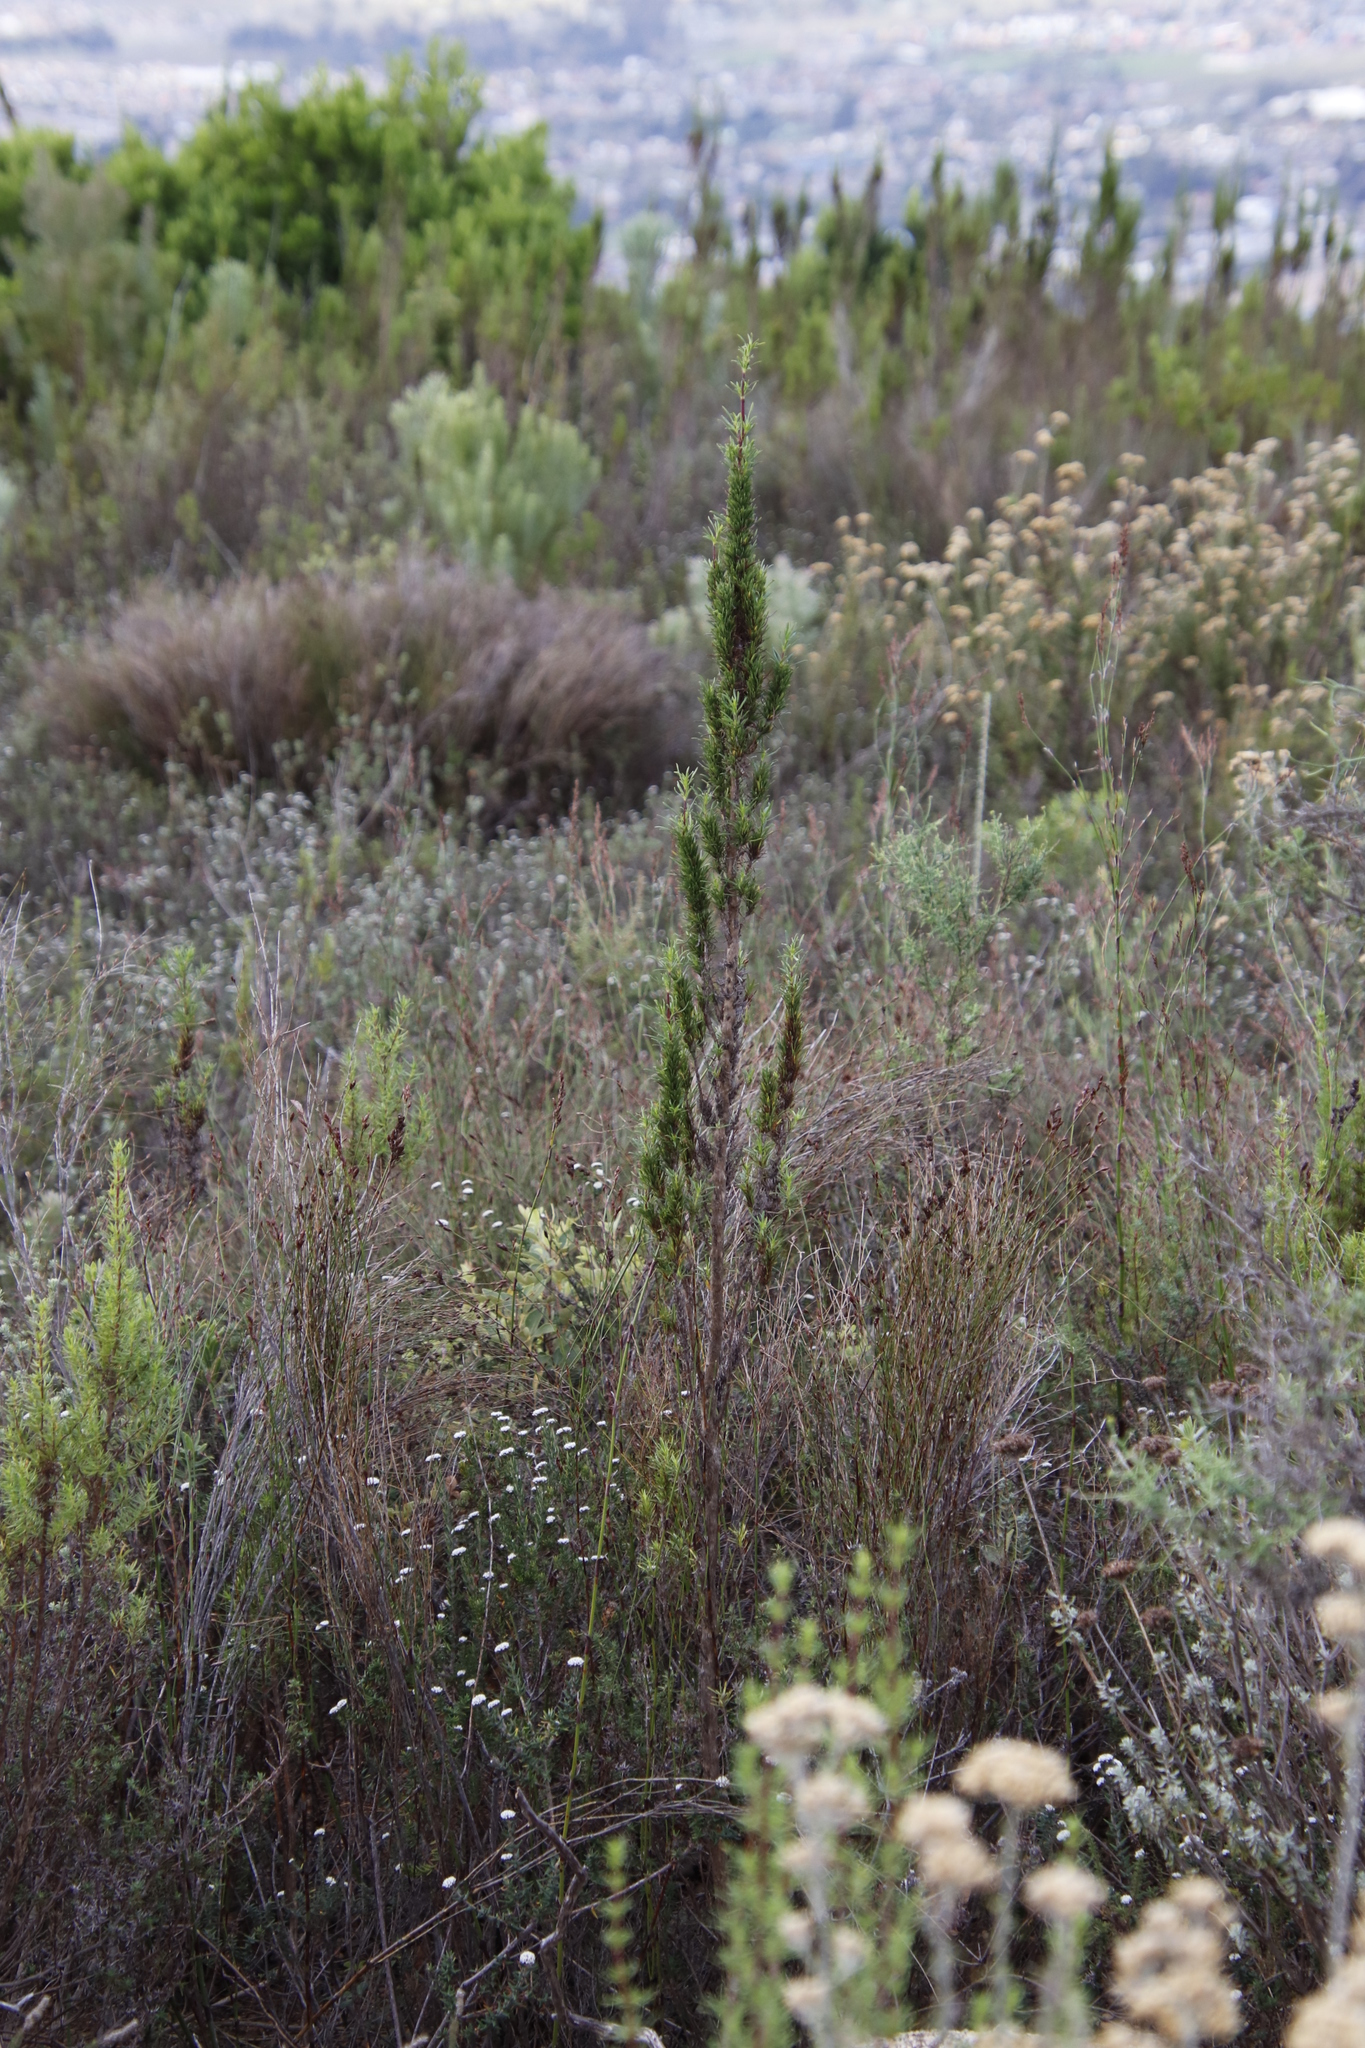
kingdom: Plantae
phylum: Tracheophyta
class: Magnoliopsida
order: Gentianales
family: Rubiaceae
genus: Anthospermum
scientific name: Anthospermum aethiopicum
